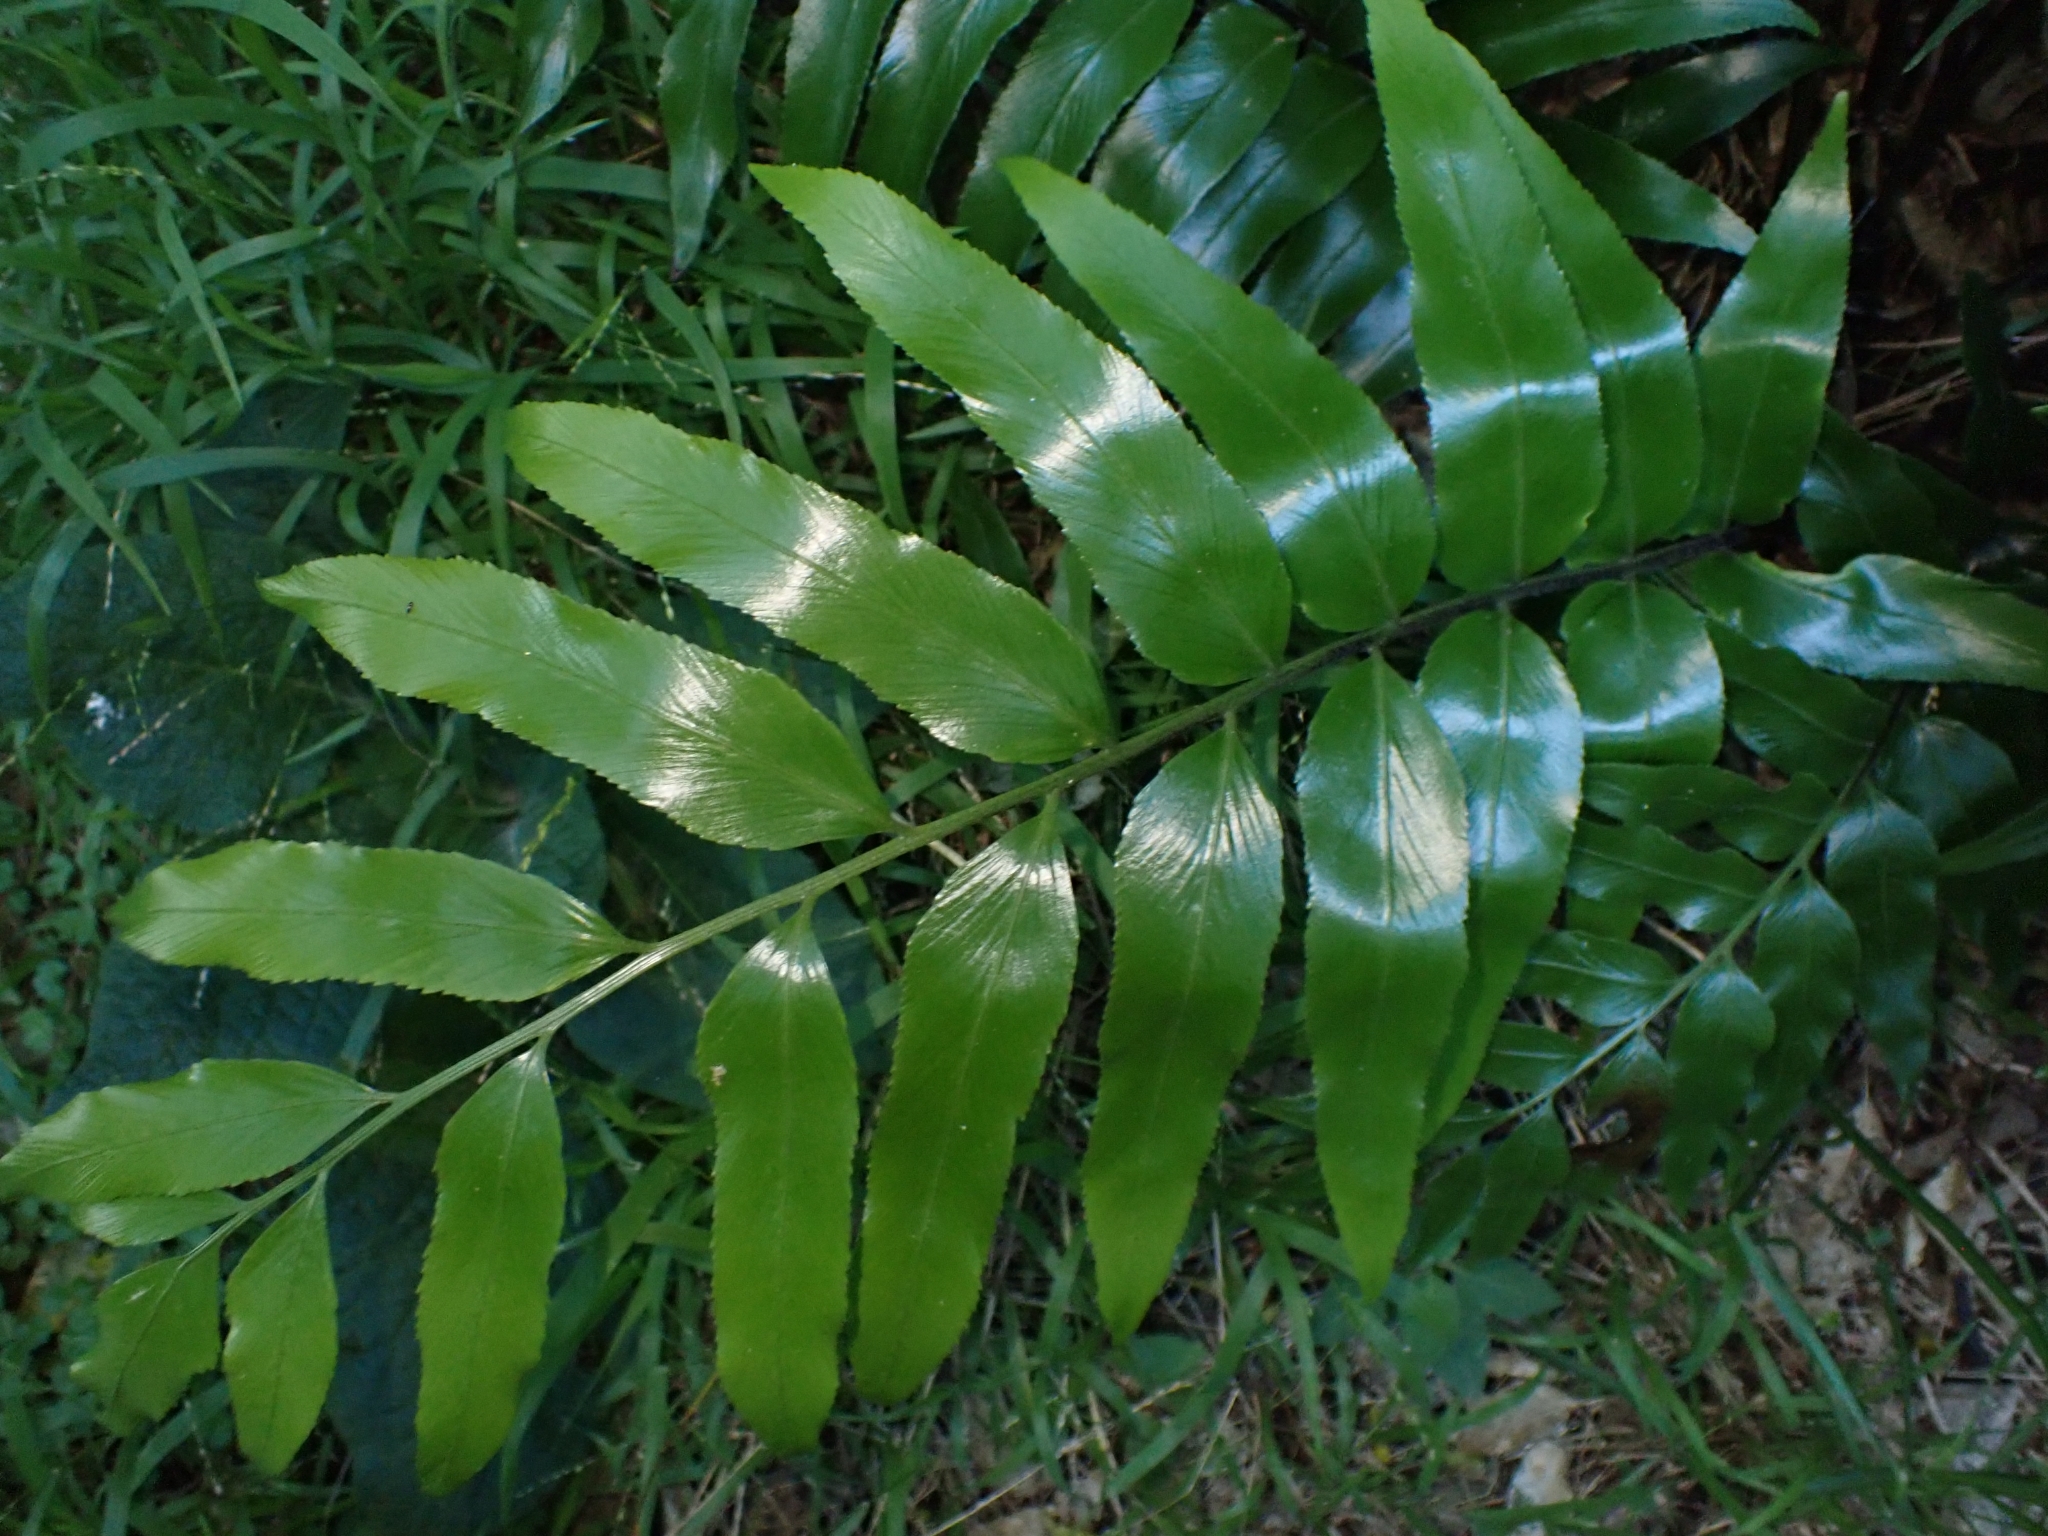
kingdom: Plantae
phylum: Tracheophyta
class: Polypodiopsida
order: Polypodiales
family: Aspleniaceae
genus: Asplenium
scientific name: Asplenium oblongifolium
